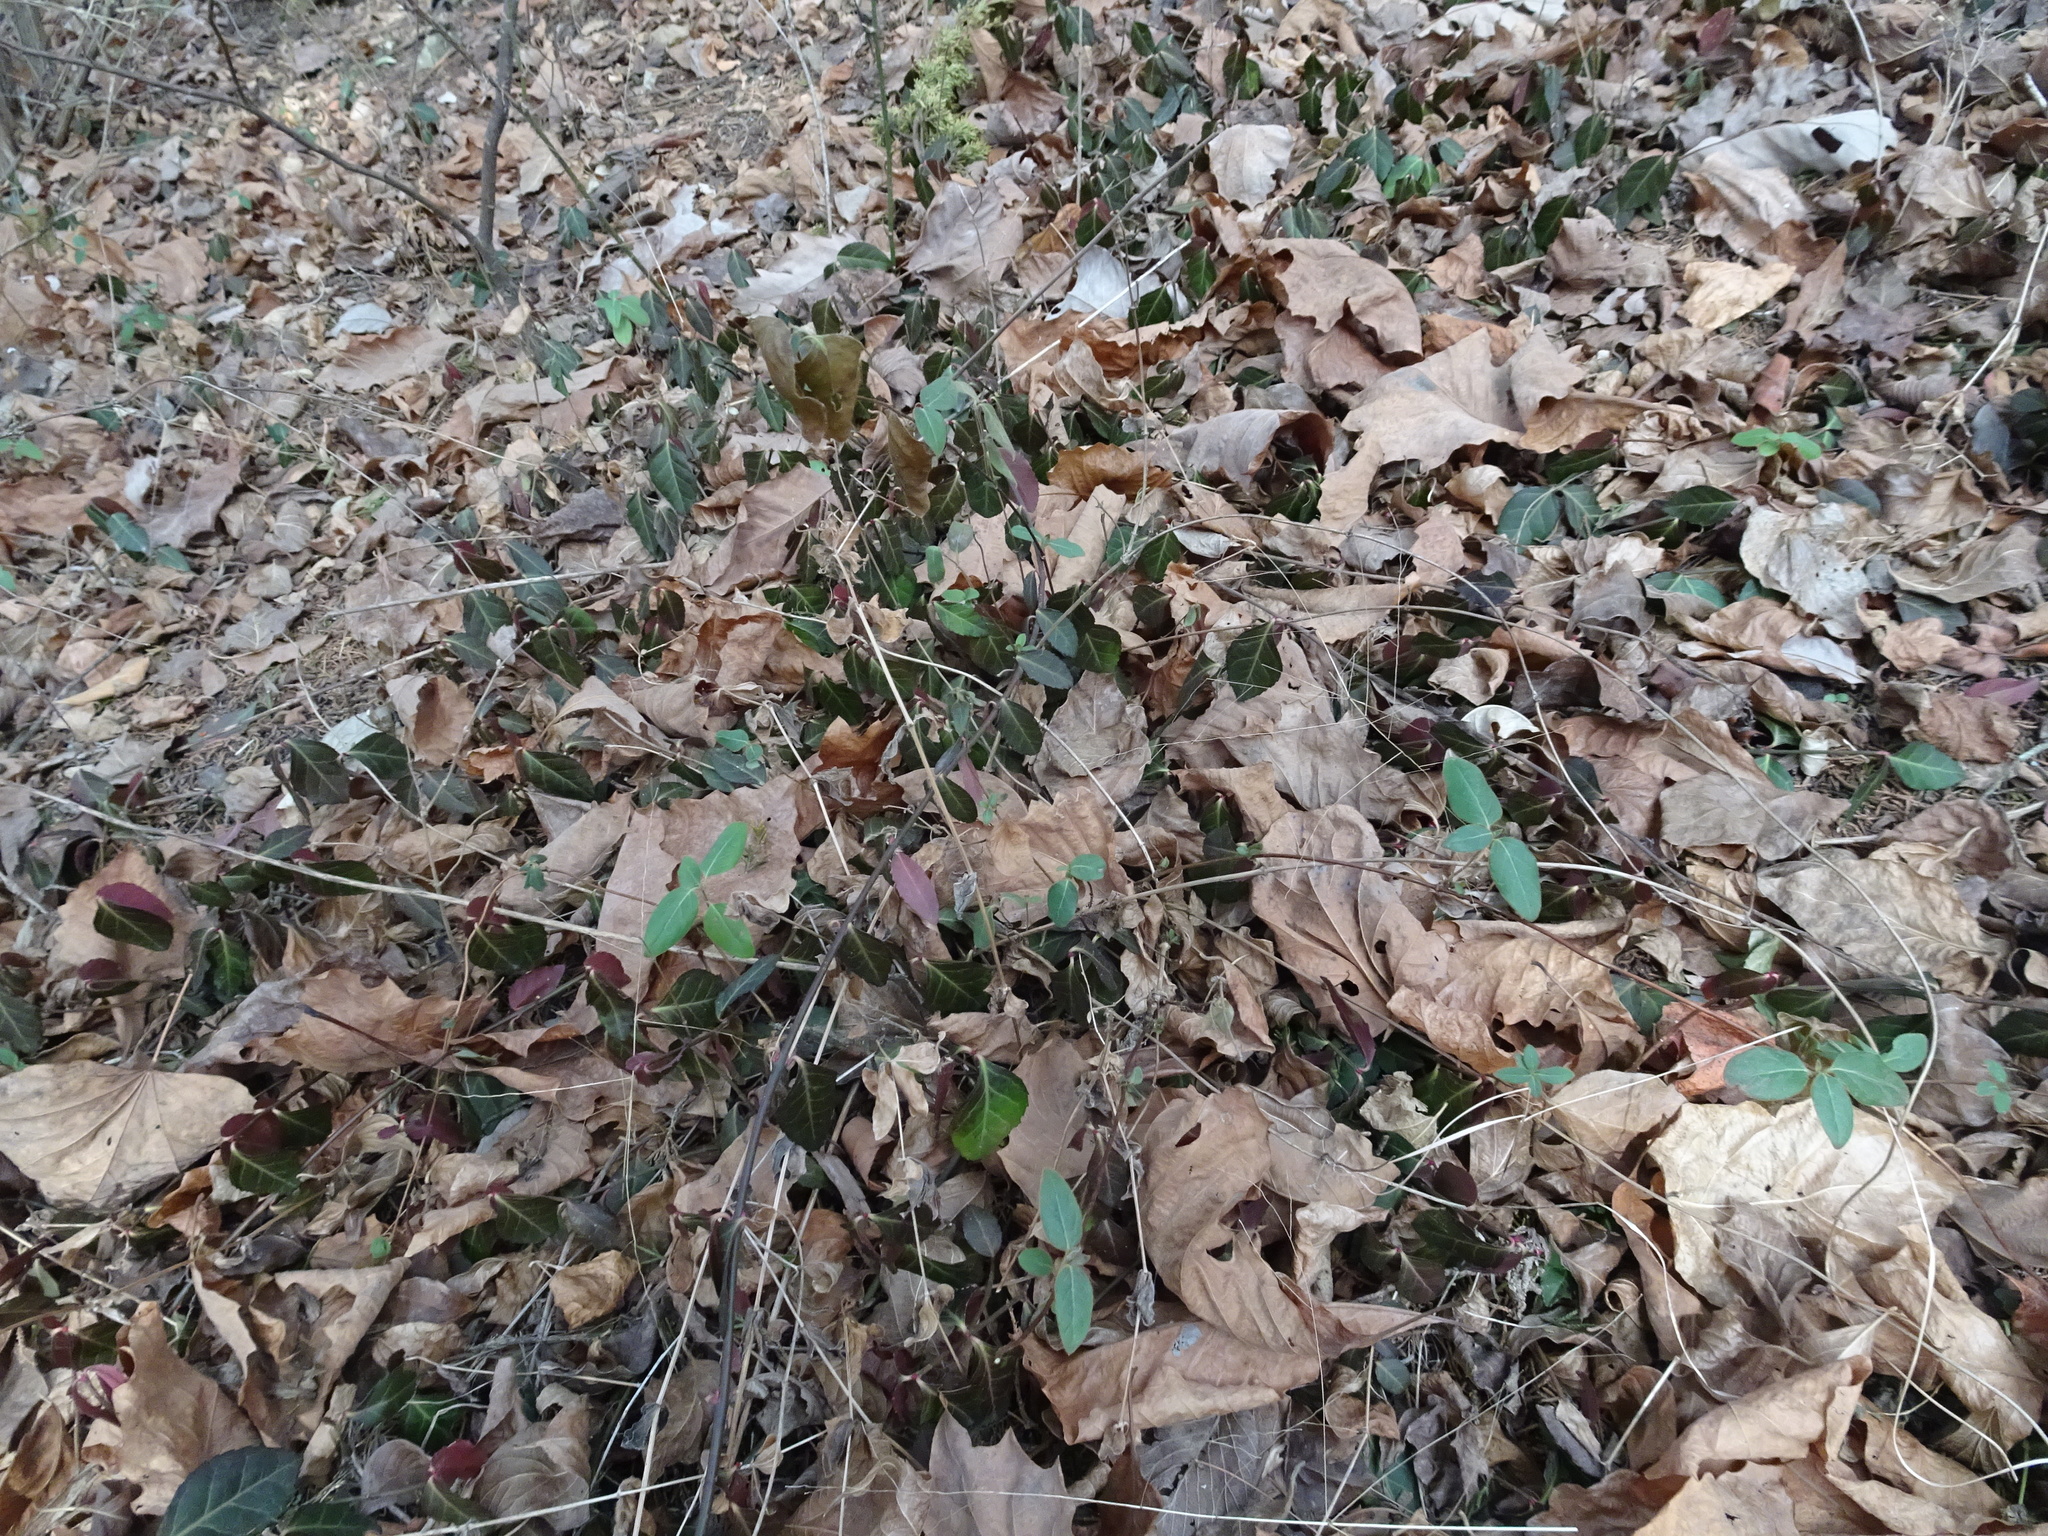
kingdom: Plantae
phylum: Tracheophyta
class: Magnoliopsida
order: Celastrales
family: Celastraceae
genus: Euonymus
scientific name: Euonymus fortunei
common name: Climbing euonymus
